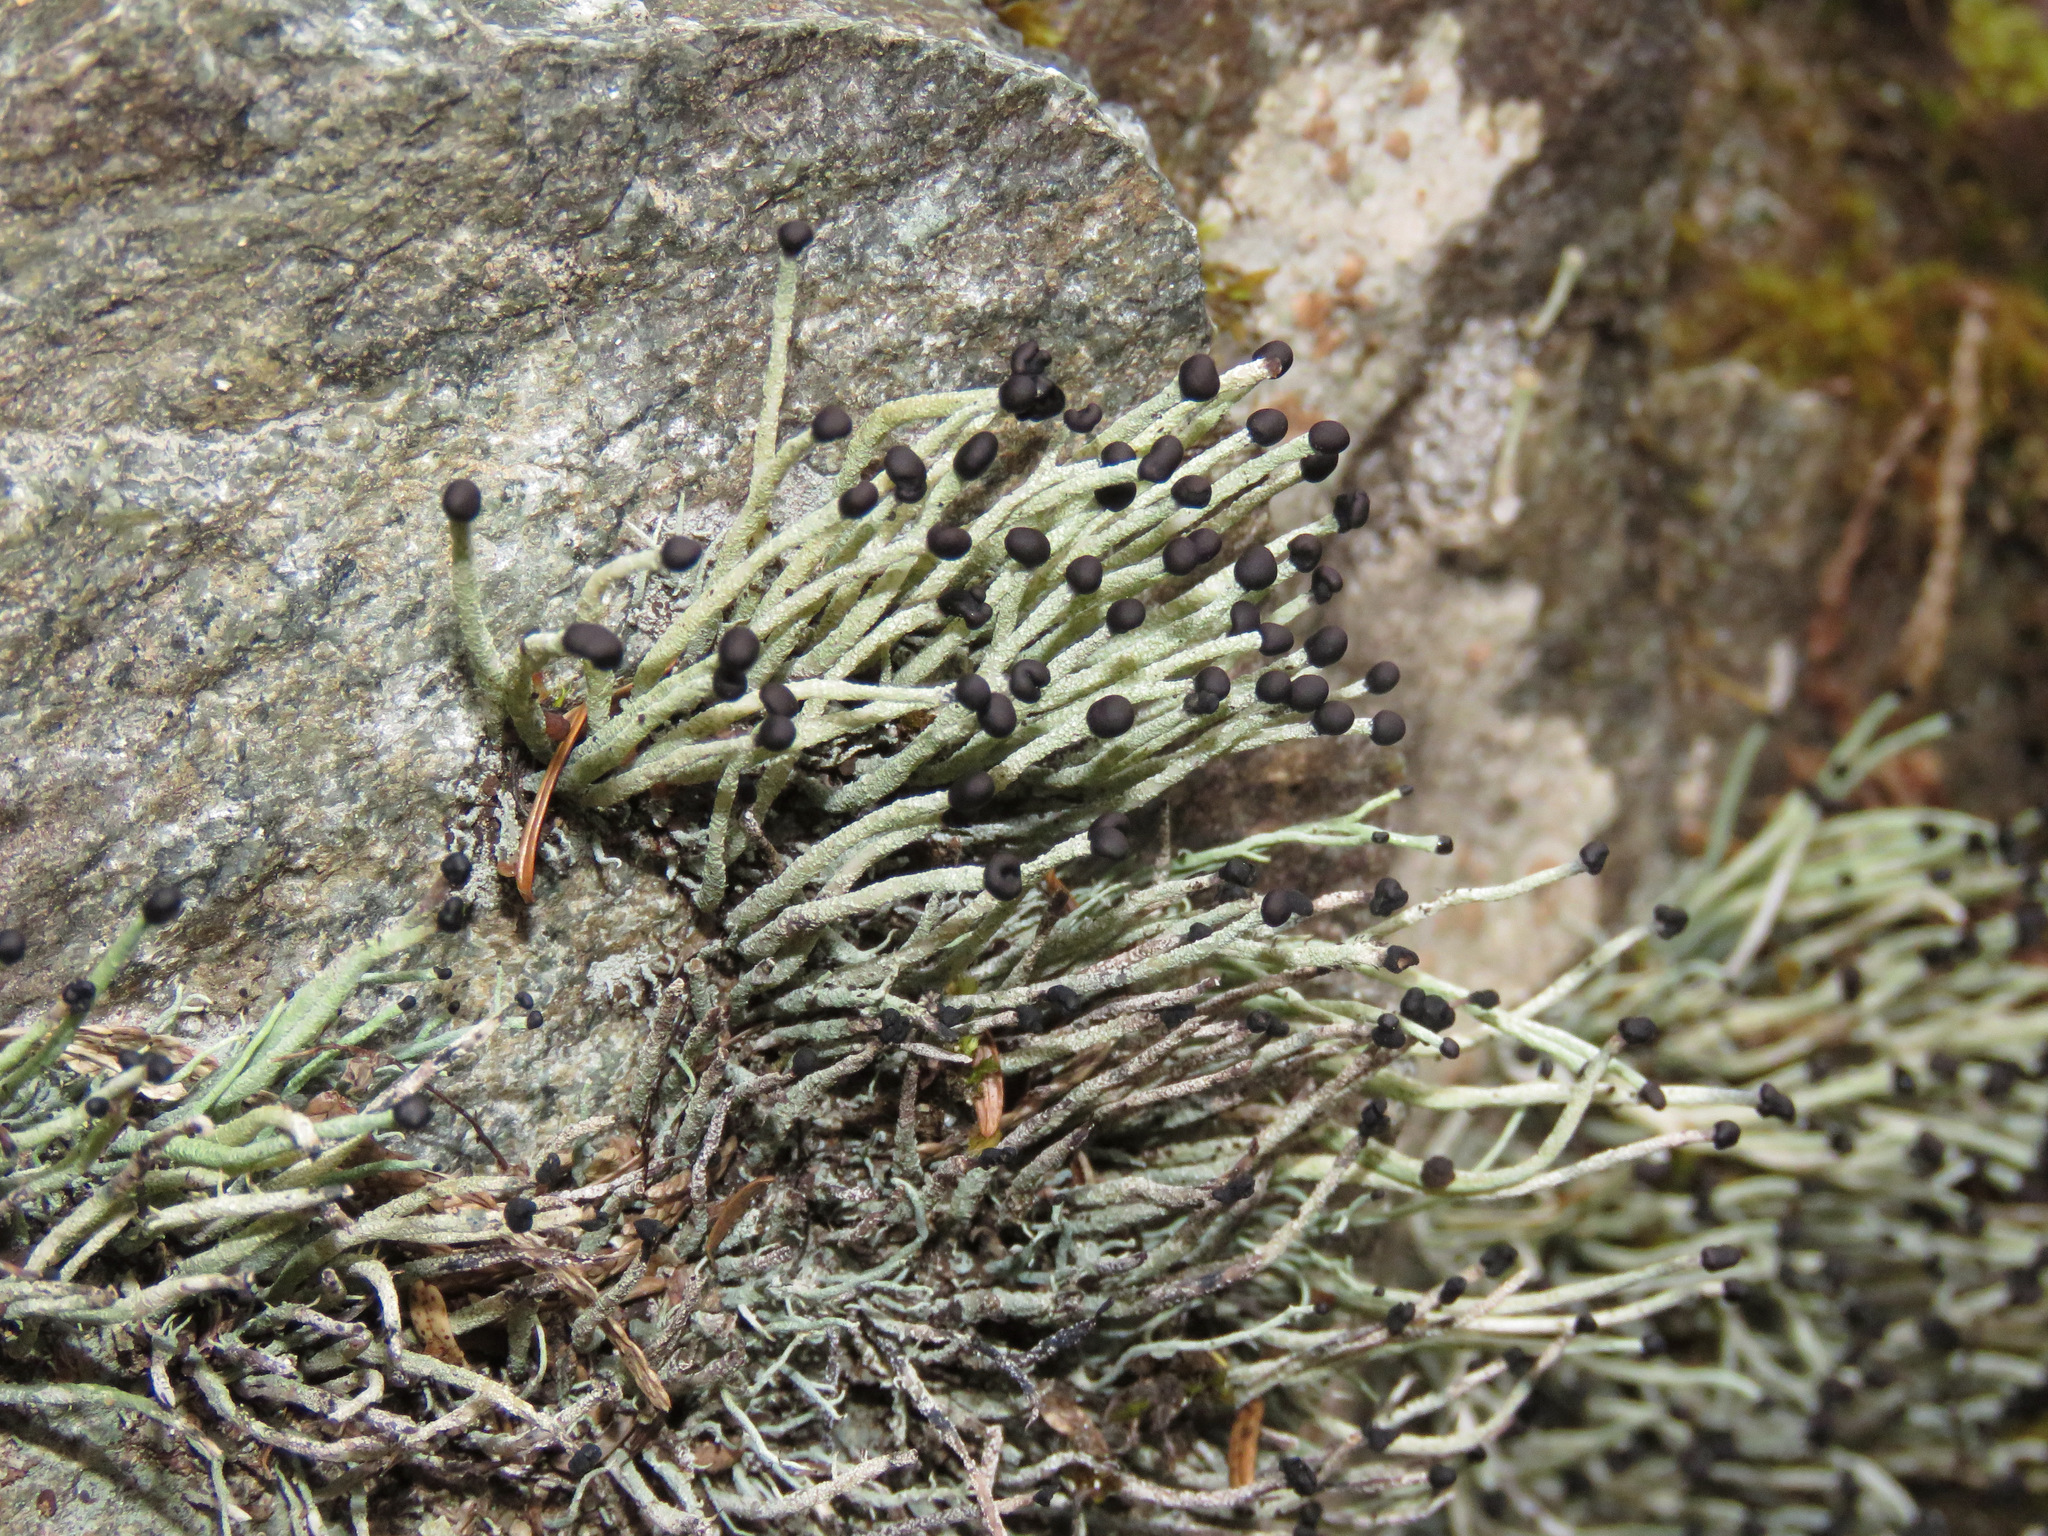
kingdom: Fungi
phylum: Ascomycota
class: Lecanoromycetes
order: Lecanorales
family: Cladoniaceae
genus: Pilophorus
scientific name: Pilophorus acicularis
